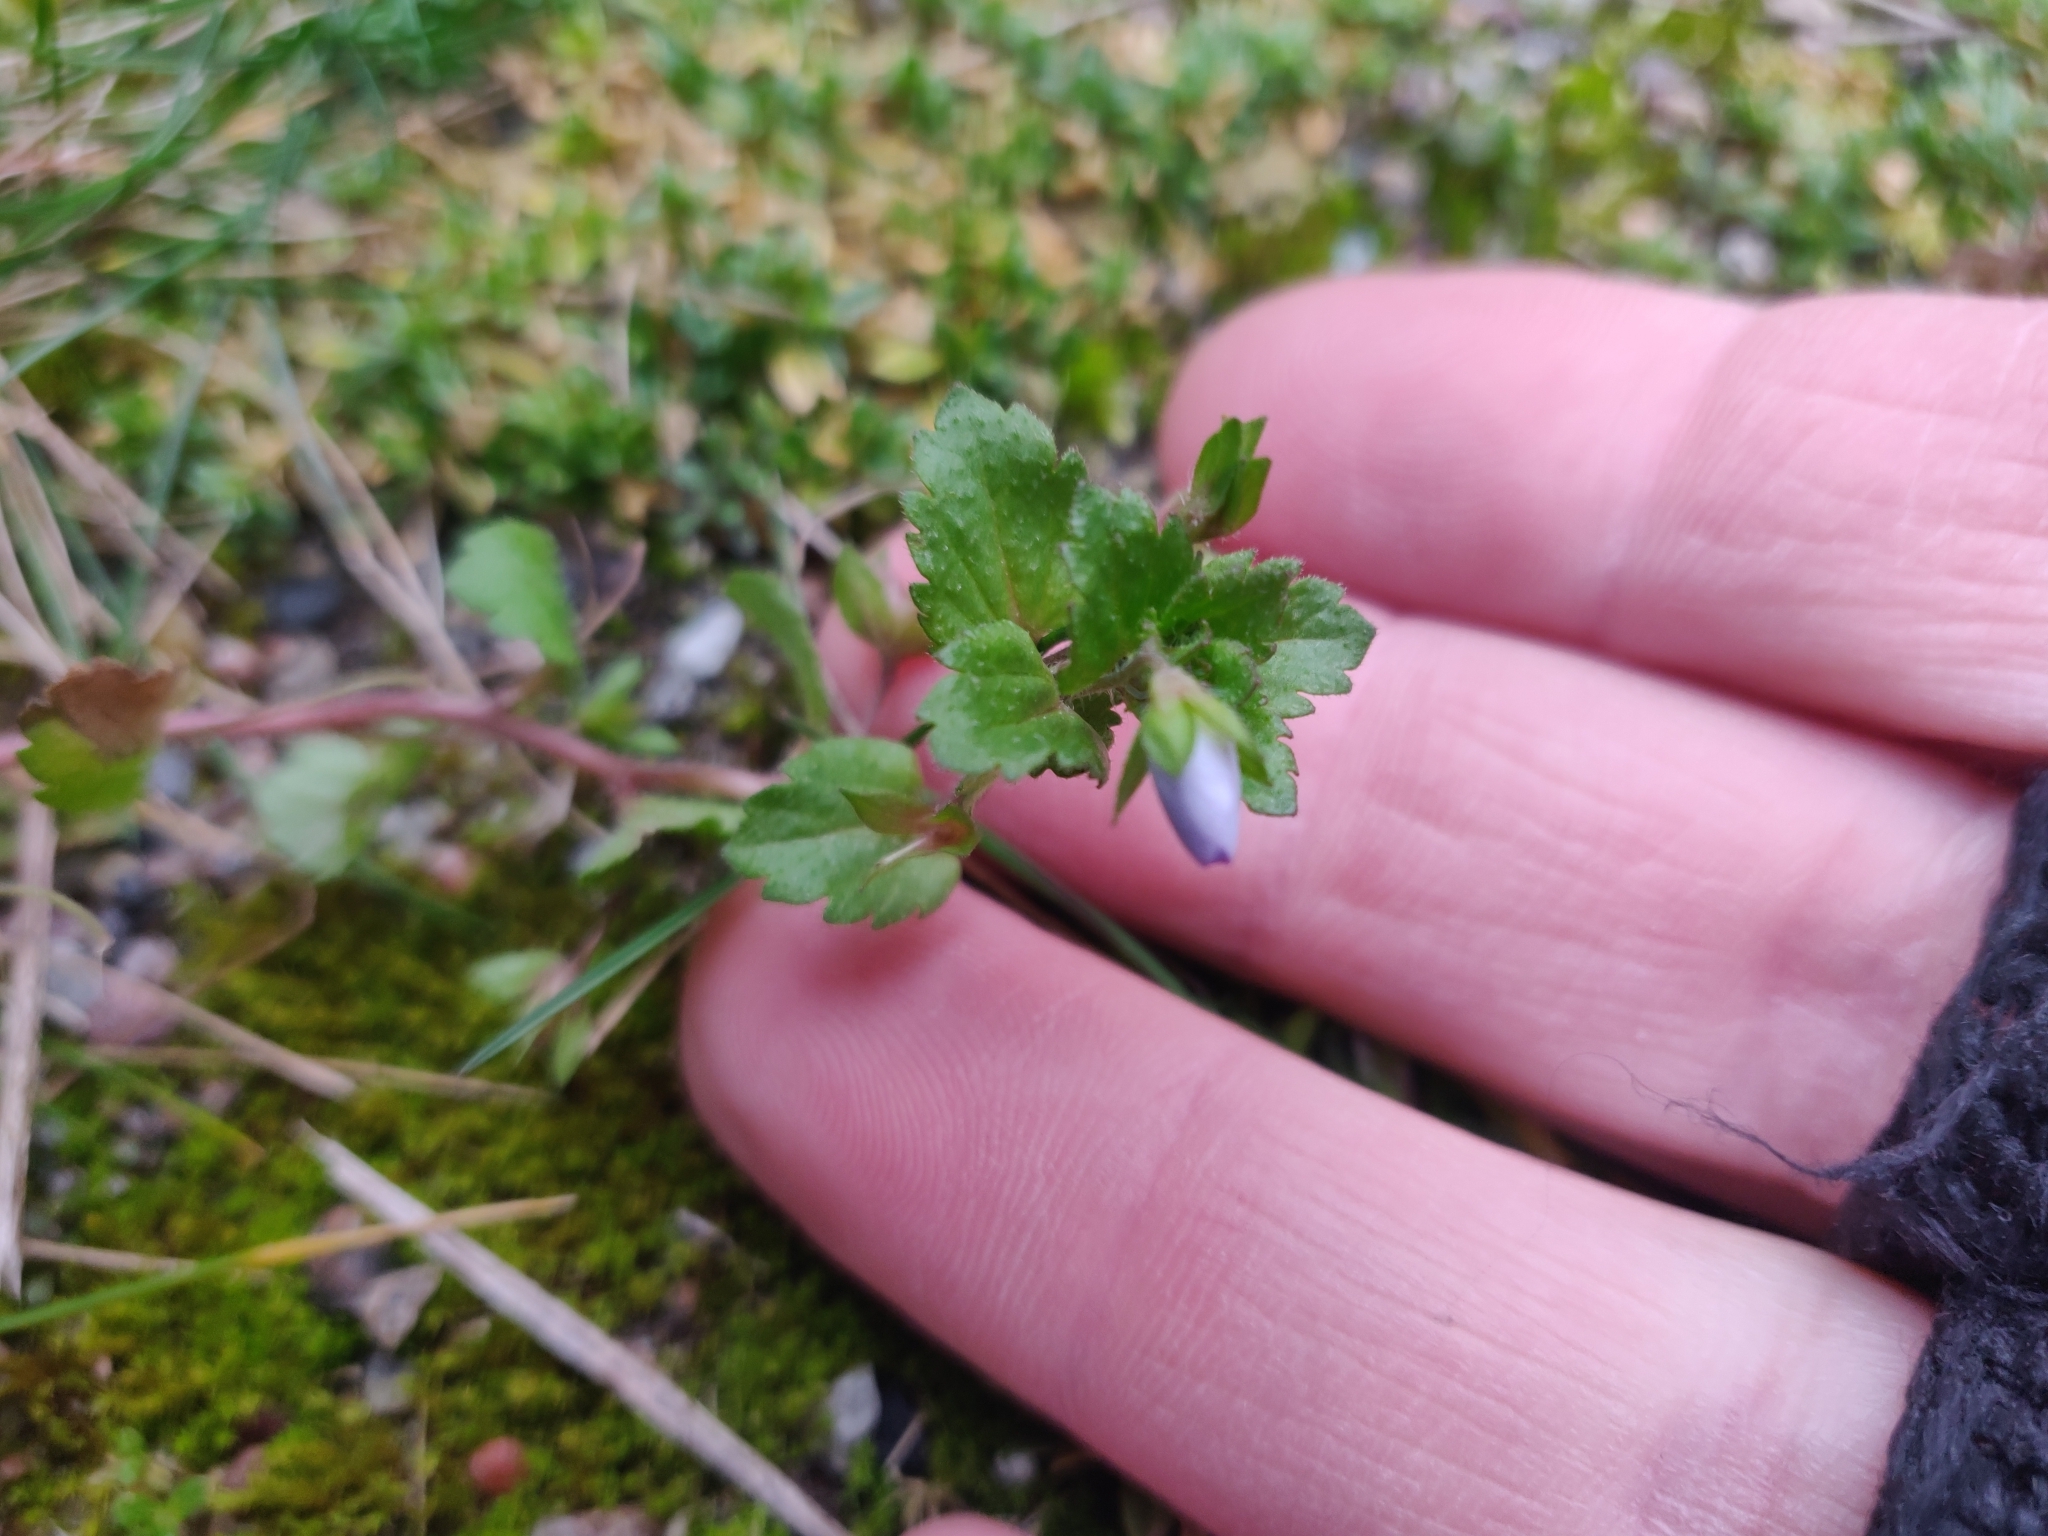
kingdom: Plantae
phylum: Tracheophyta
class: Magnoliopsida
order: Lamiales
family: Plantaginaceae
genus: Veronica
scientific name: Veronica persica
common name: Common field-speedwell
